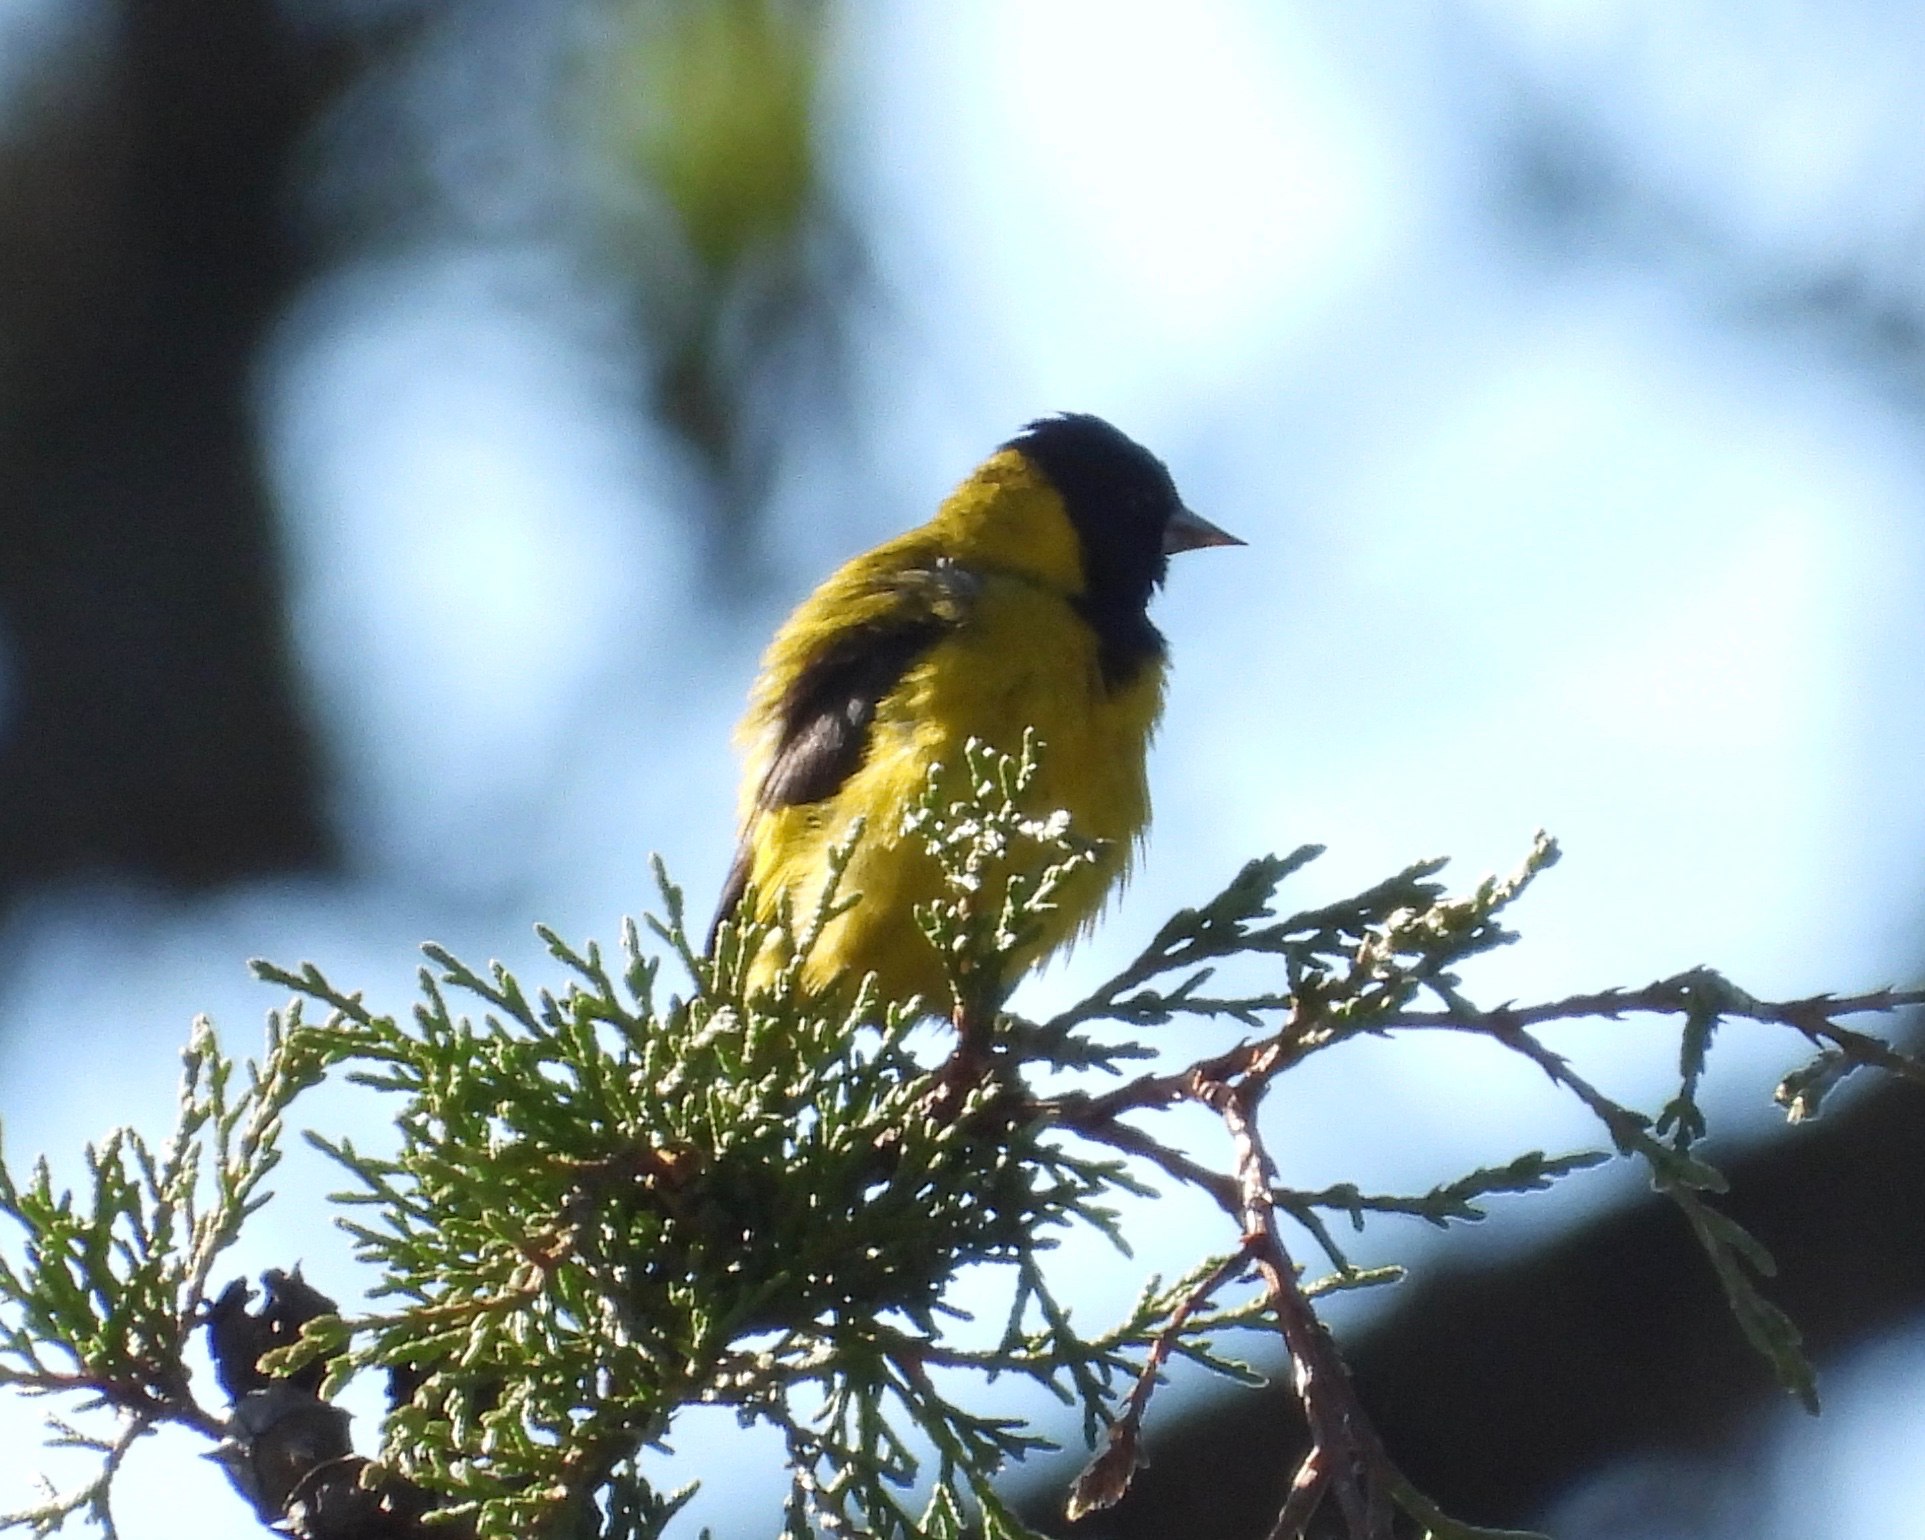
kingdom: Animalia
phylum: Chordata
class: Aves
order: Passeriformes
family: Fringillidae
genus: Spinus
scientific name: Spinus notatus
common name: Black-headed siskin
